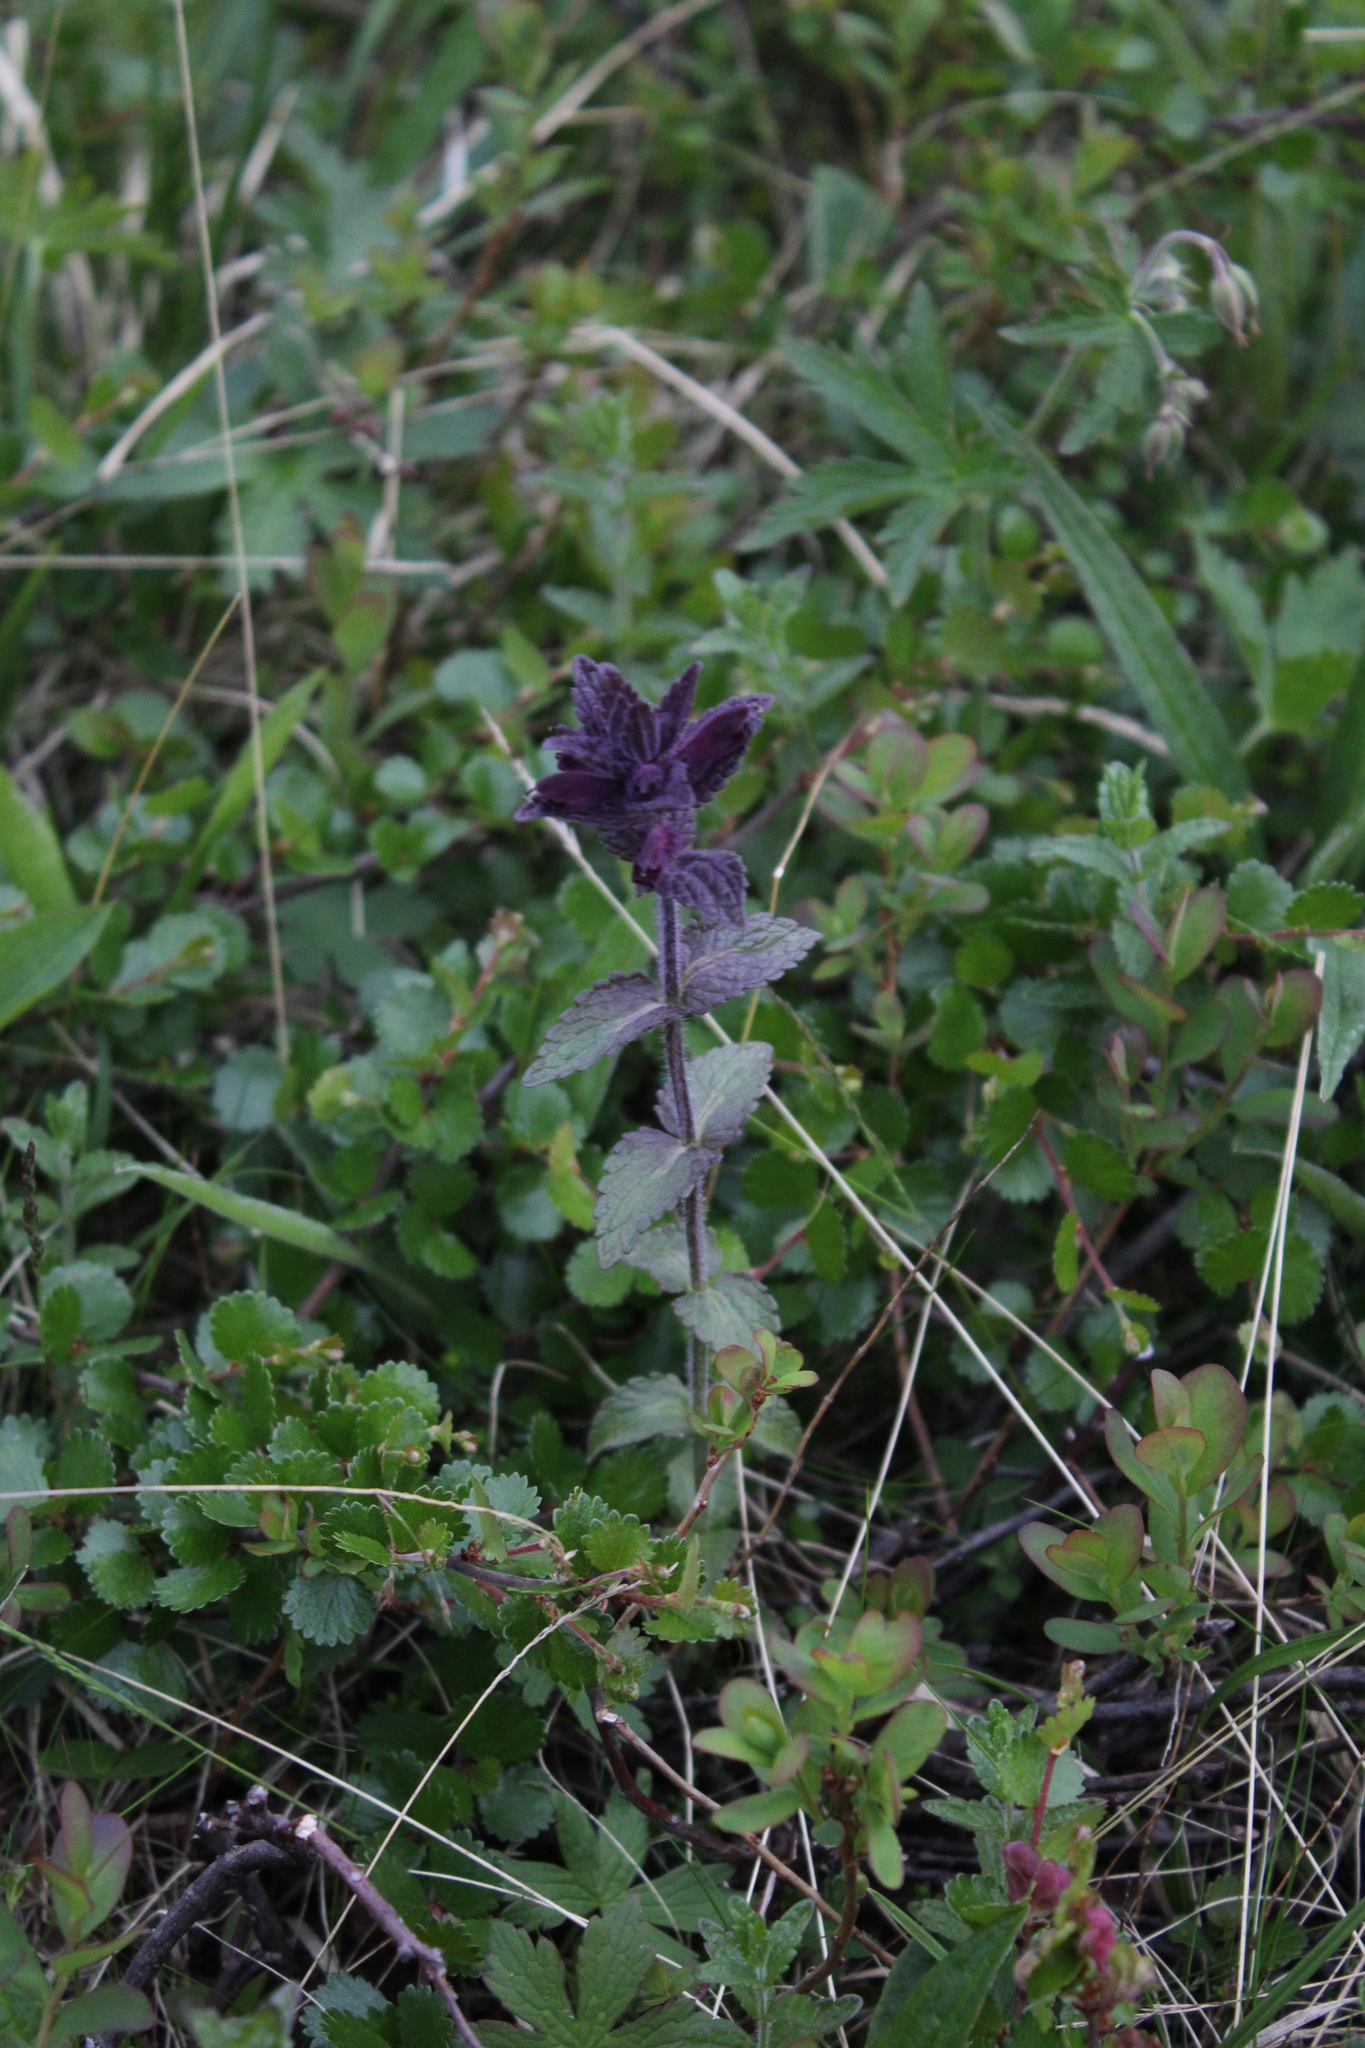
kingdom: Plantae
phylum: Tracheophyta
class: Magnoliopsida
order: Lamiales
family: Orobanchaceae
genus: Bartsia
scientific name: Bartsia alpina
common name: Alpine bartsia
